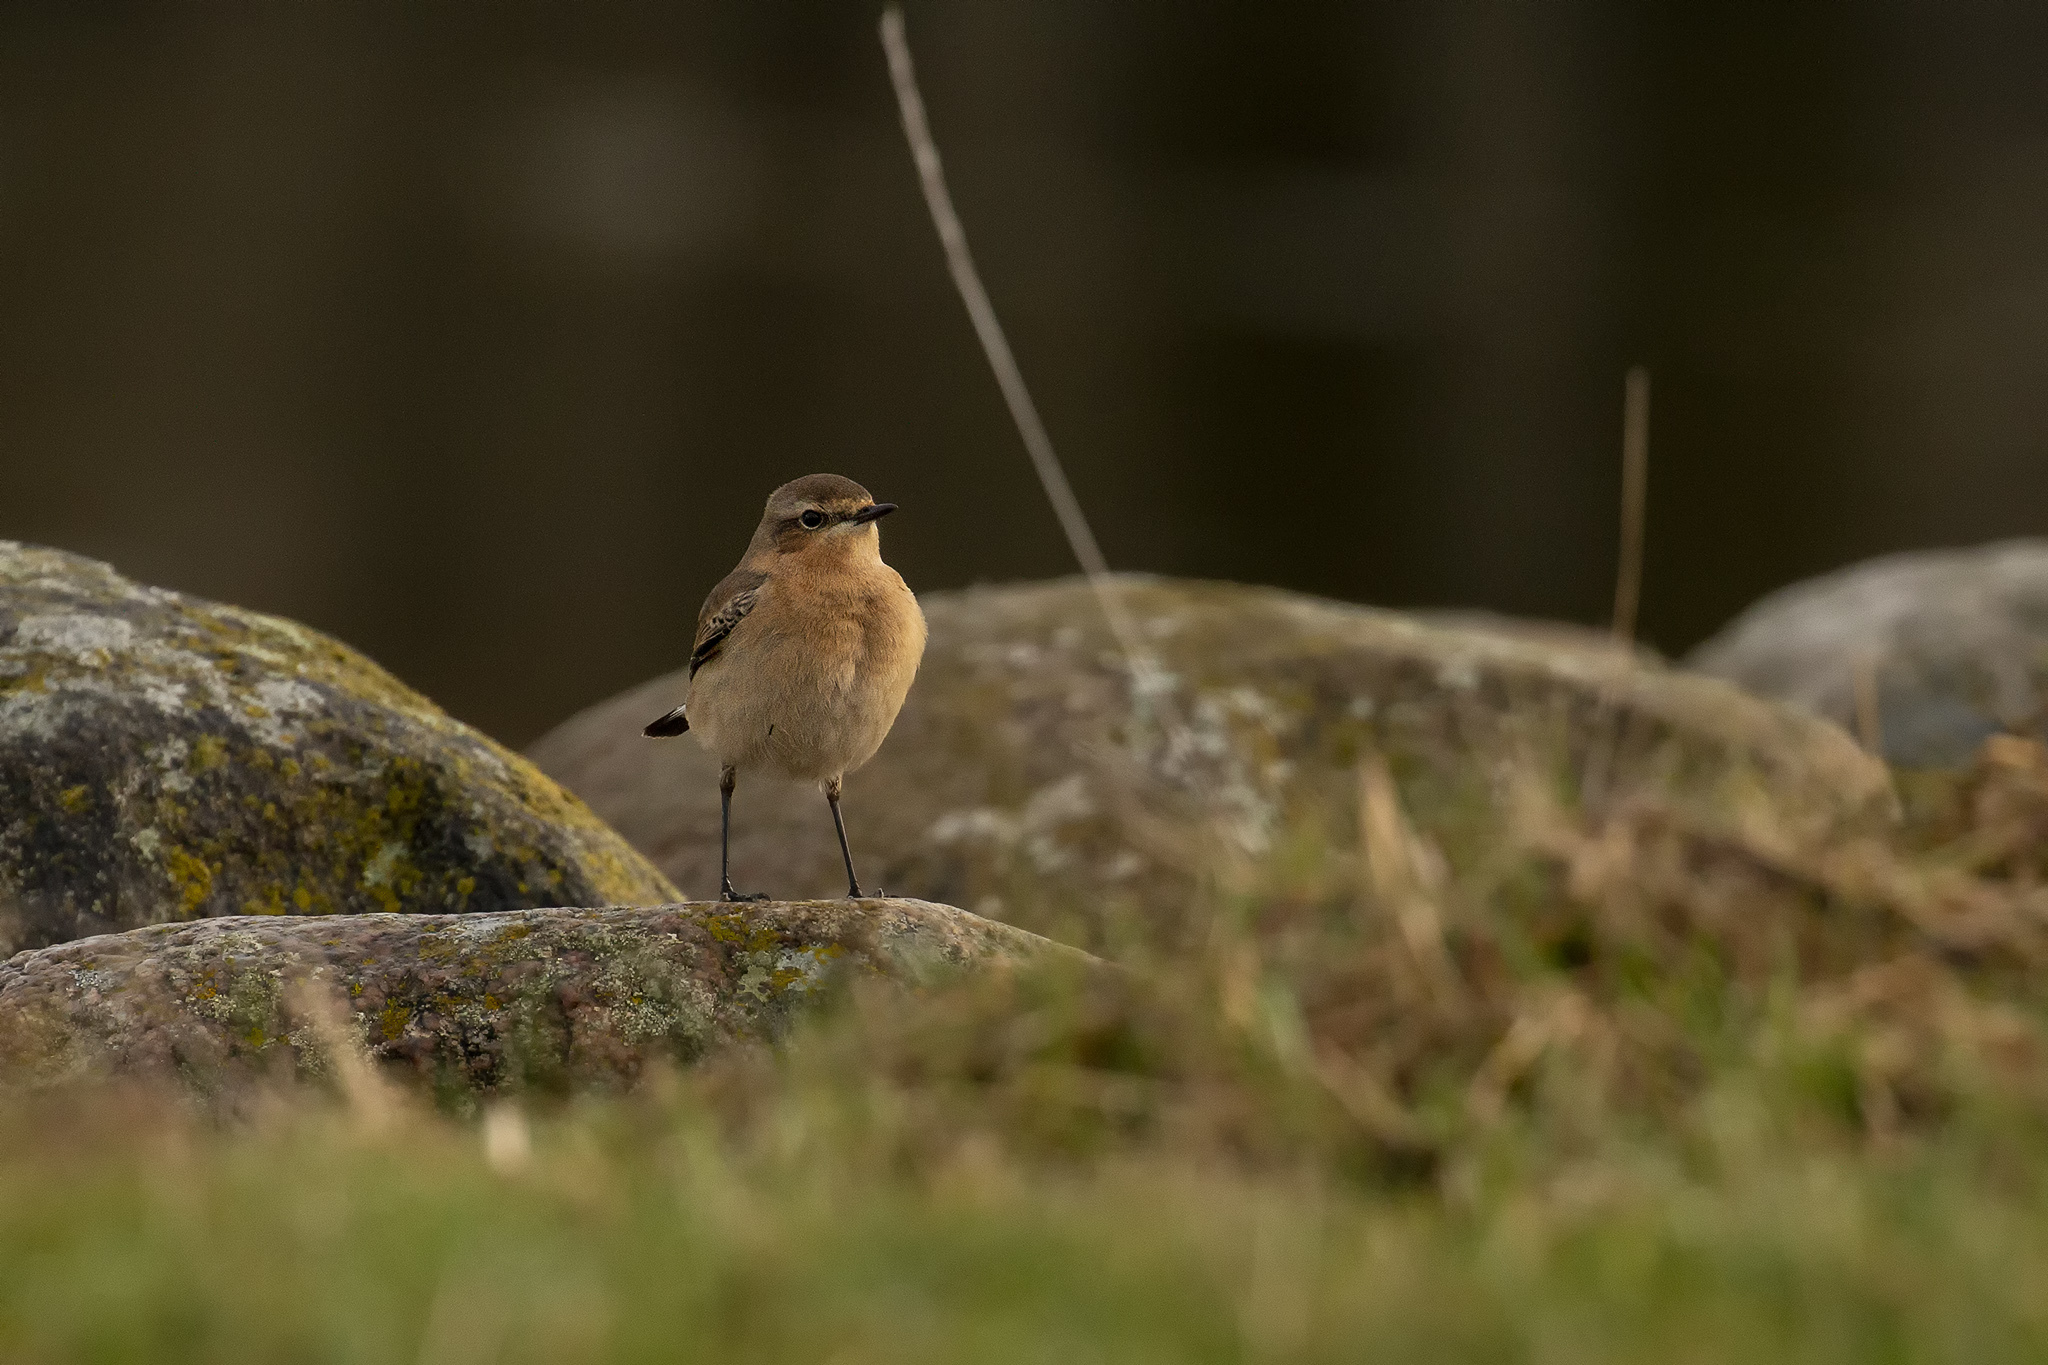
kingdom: Animalia
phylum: Chordata
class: Aves
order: Passeriformes
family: Muscicapidae
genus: Oenanthe
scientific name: Oenanthe oenanthe
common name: Northern wheatear
